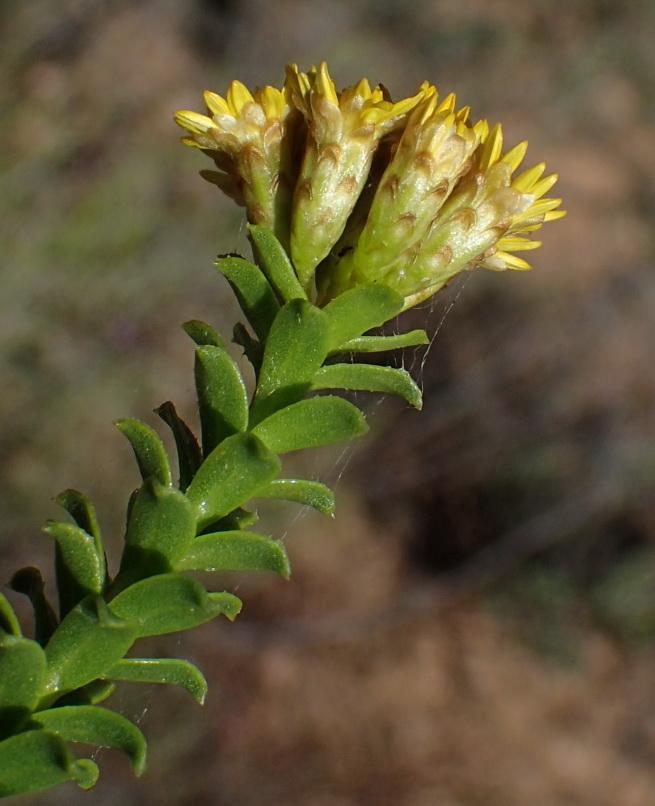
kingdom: Plantae
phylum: Tracheophyta
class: Magnoliopsida
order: Asterales
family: Asteraceae
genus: Oedera
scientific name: Oedera squarrosa
